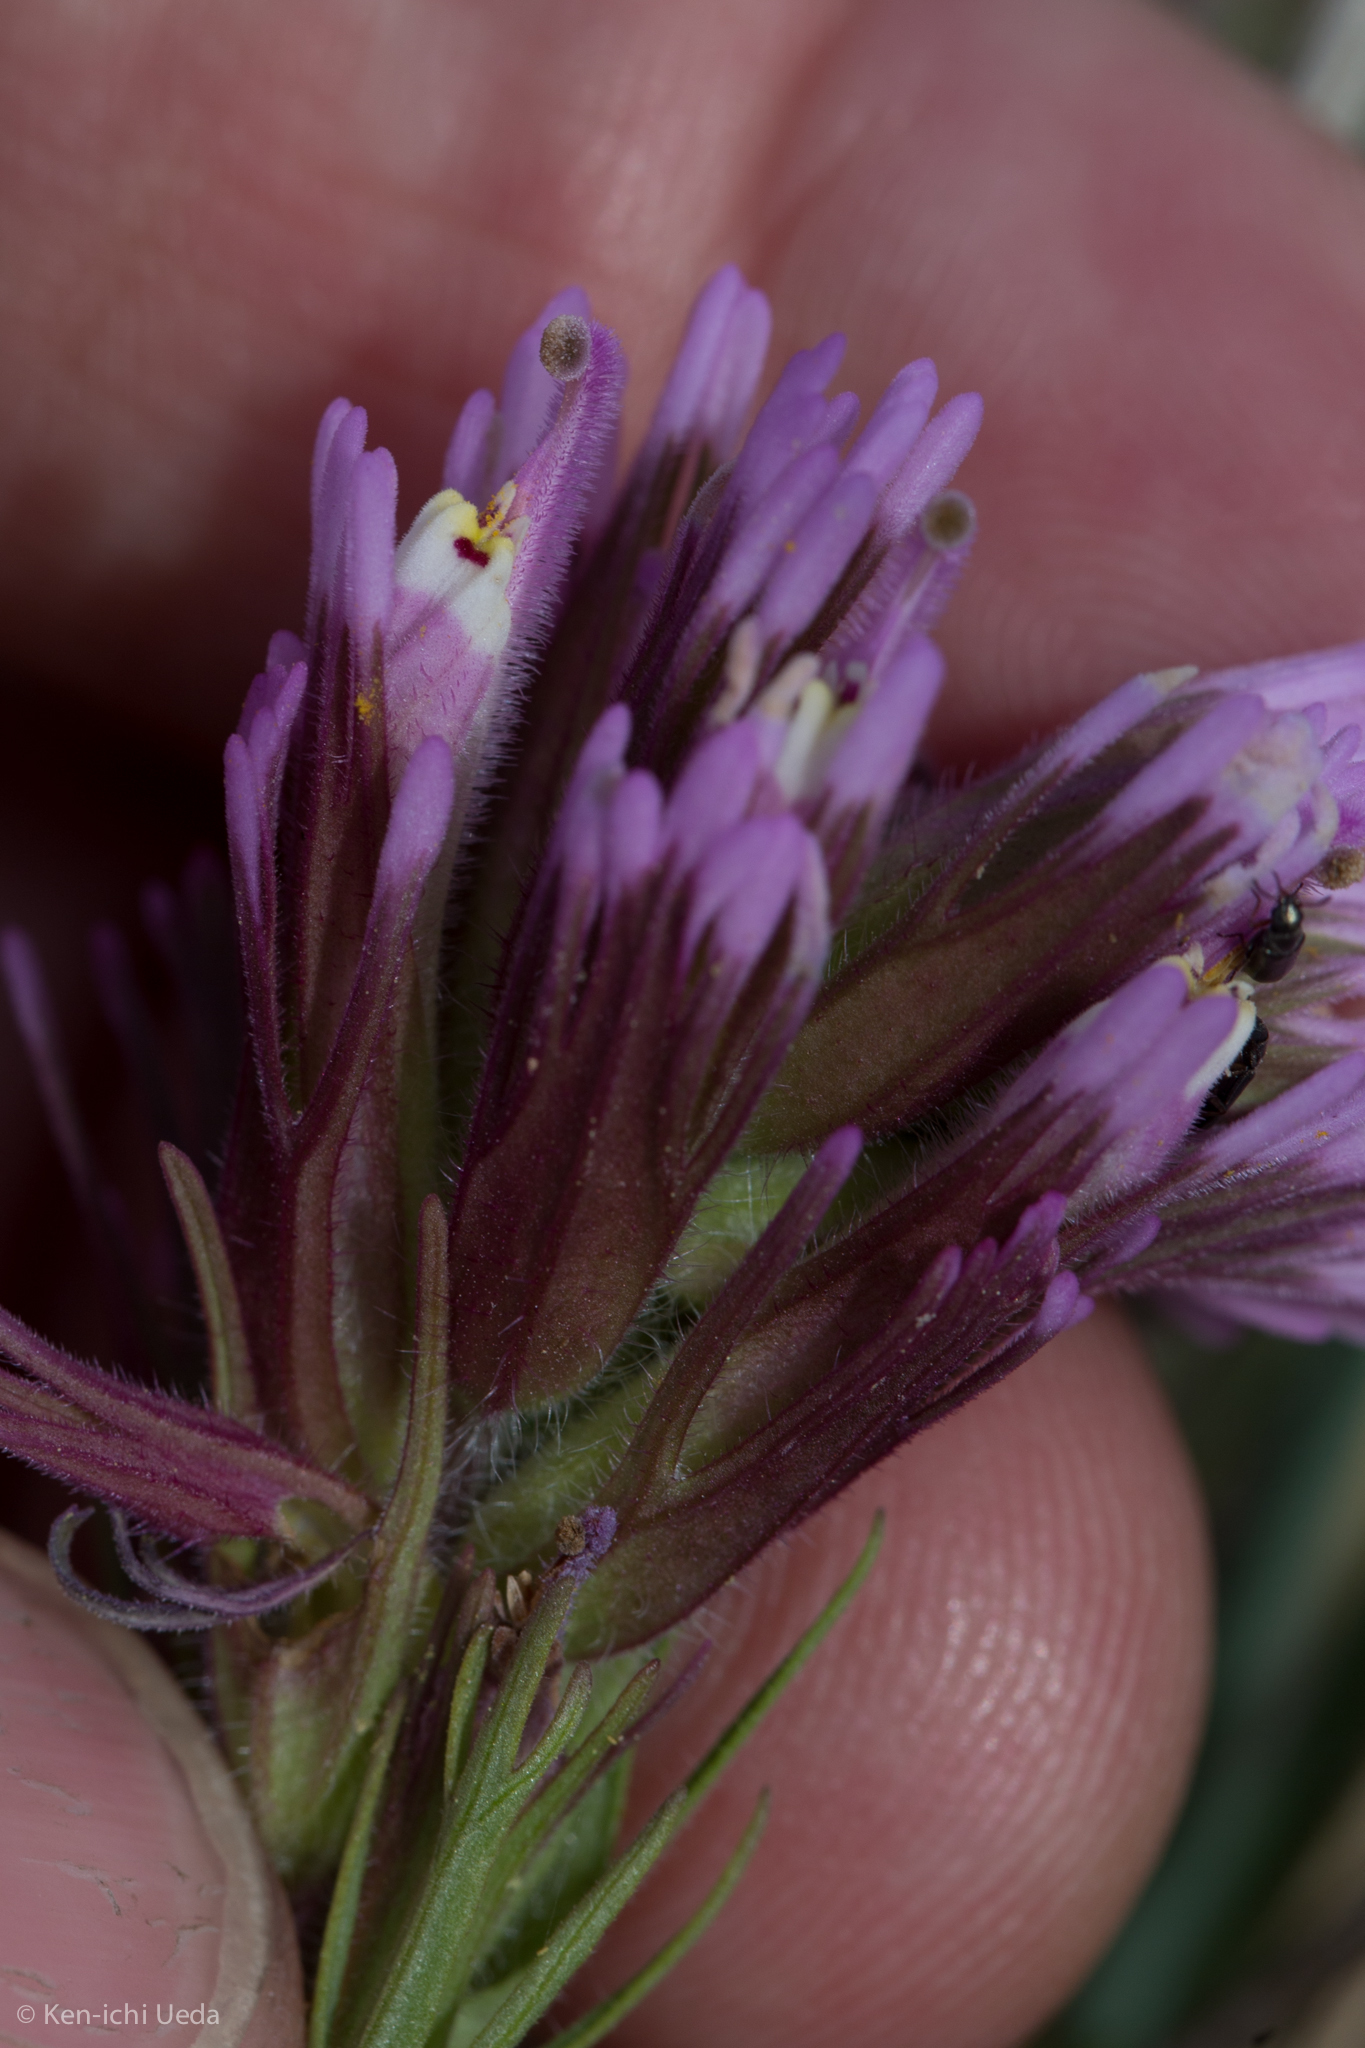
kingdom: Plantae
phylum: Tracheophyta
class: Magnoliopsida
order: Lamiales
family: Orobanchaceae
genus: Castilleja
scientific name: Castilleja exserta
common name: Purple owl-clover
